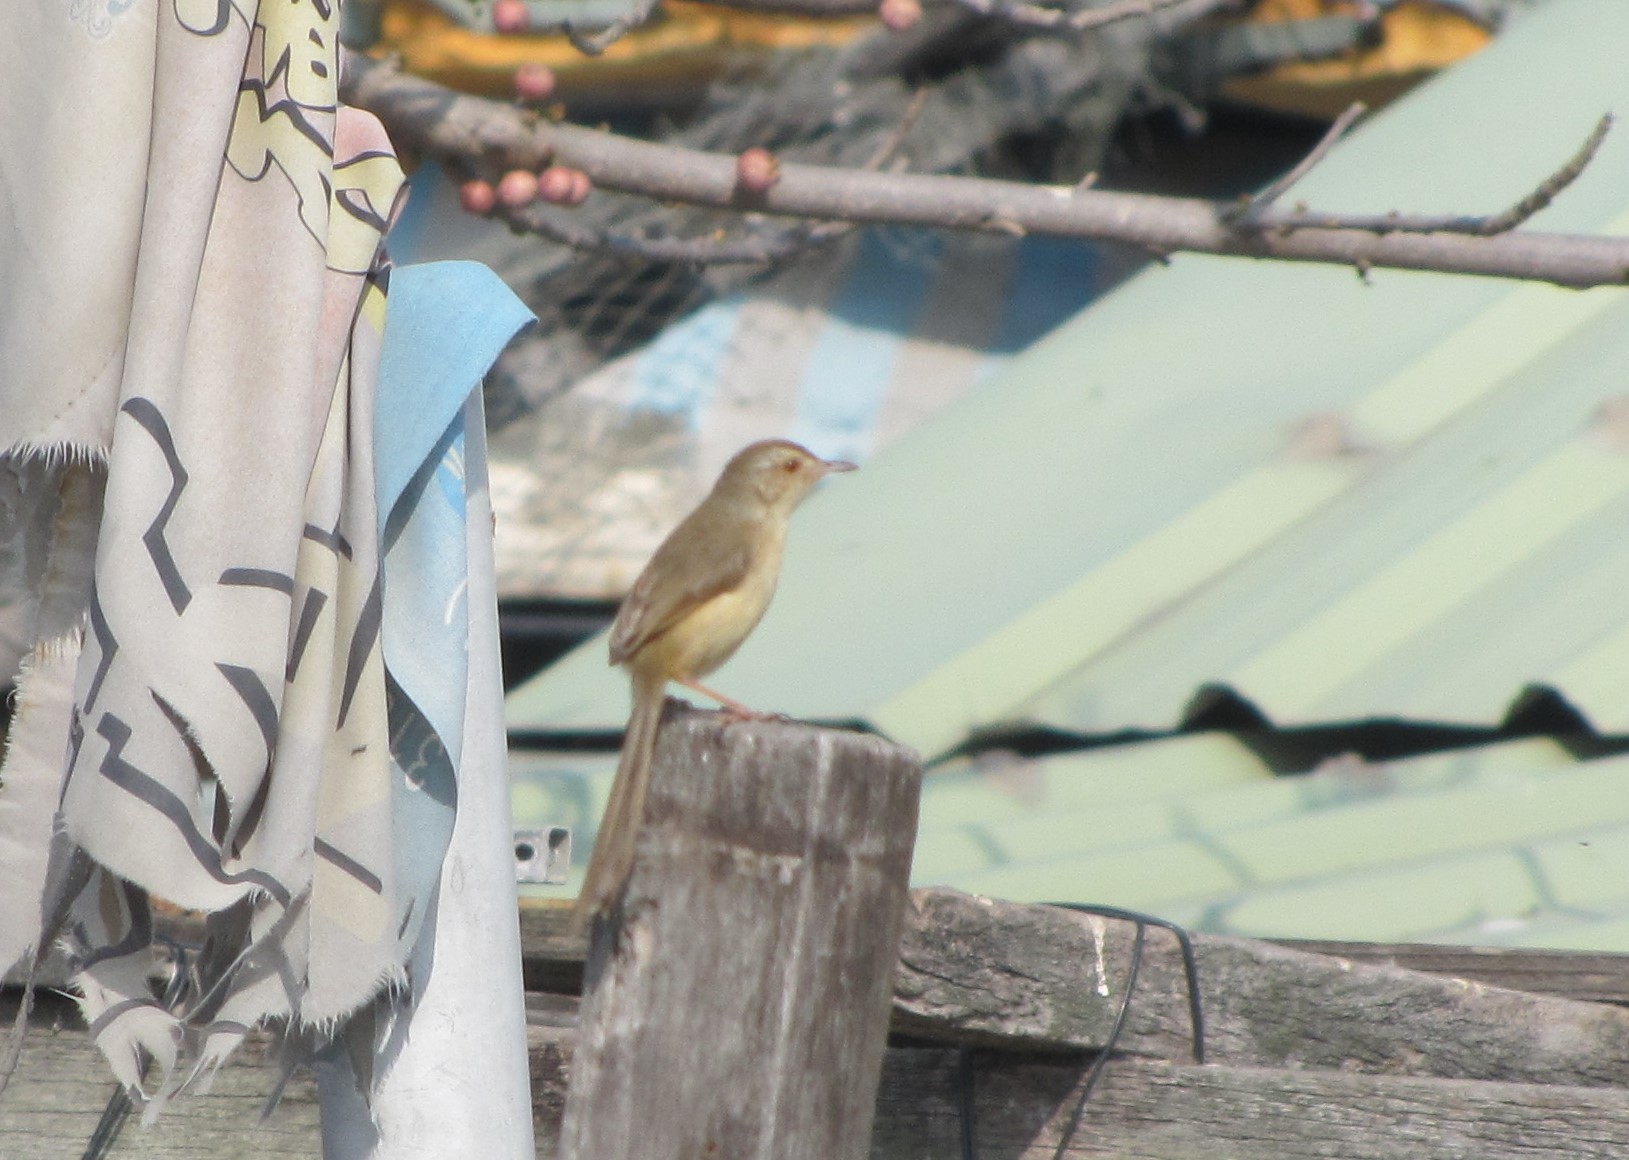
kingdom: Animalia
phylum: Chordata
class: Aves
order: Passeriformes
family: Cisticolidae
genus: Prinia
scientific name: Prinia inornata
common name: Plain prinia
